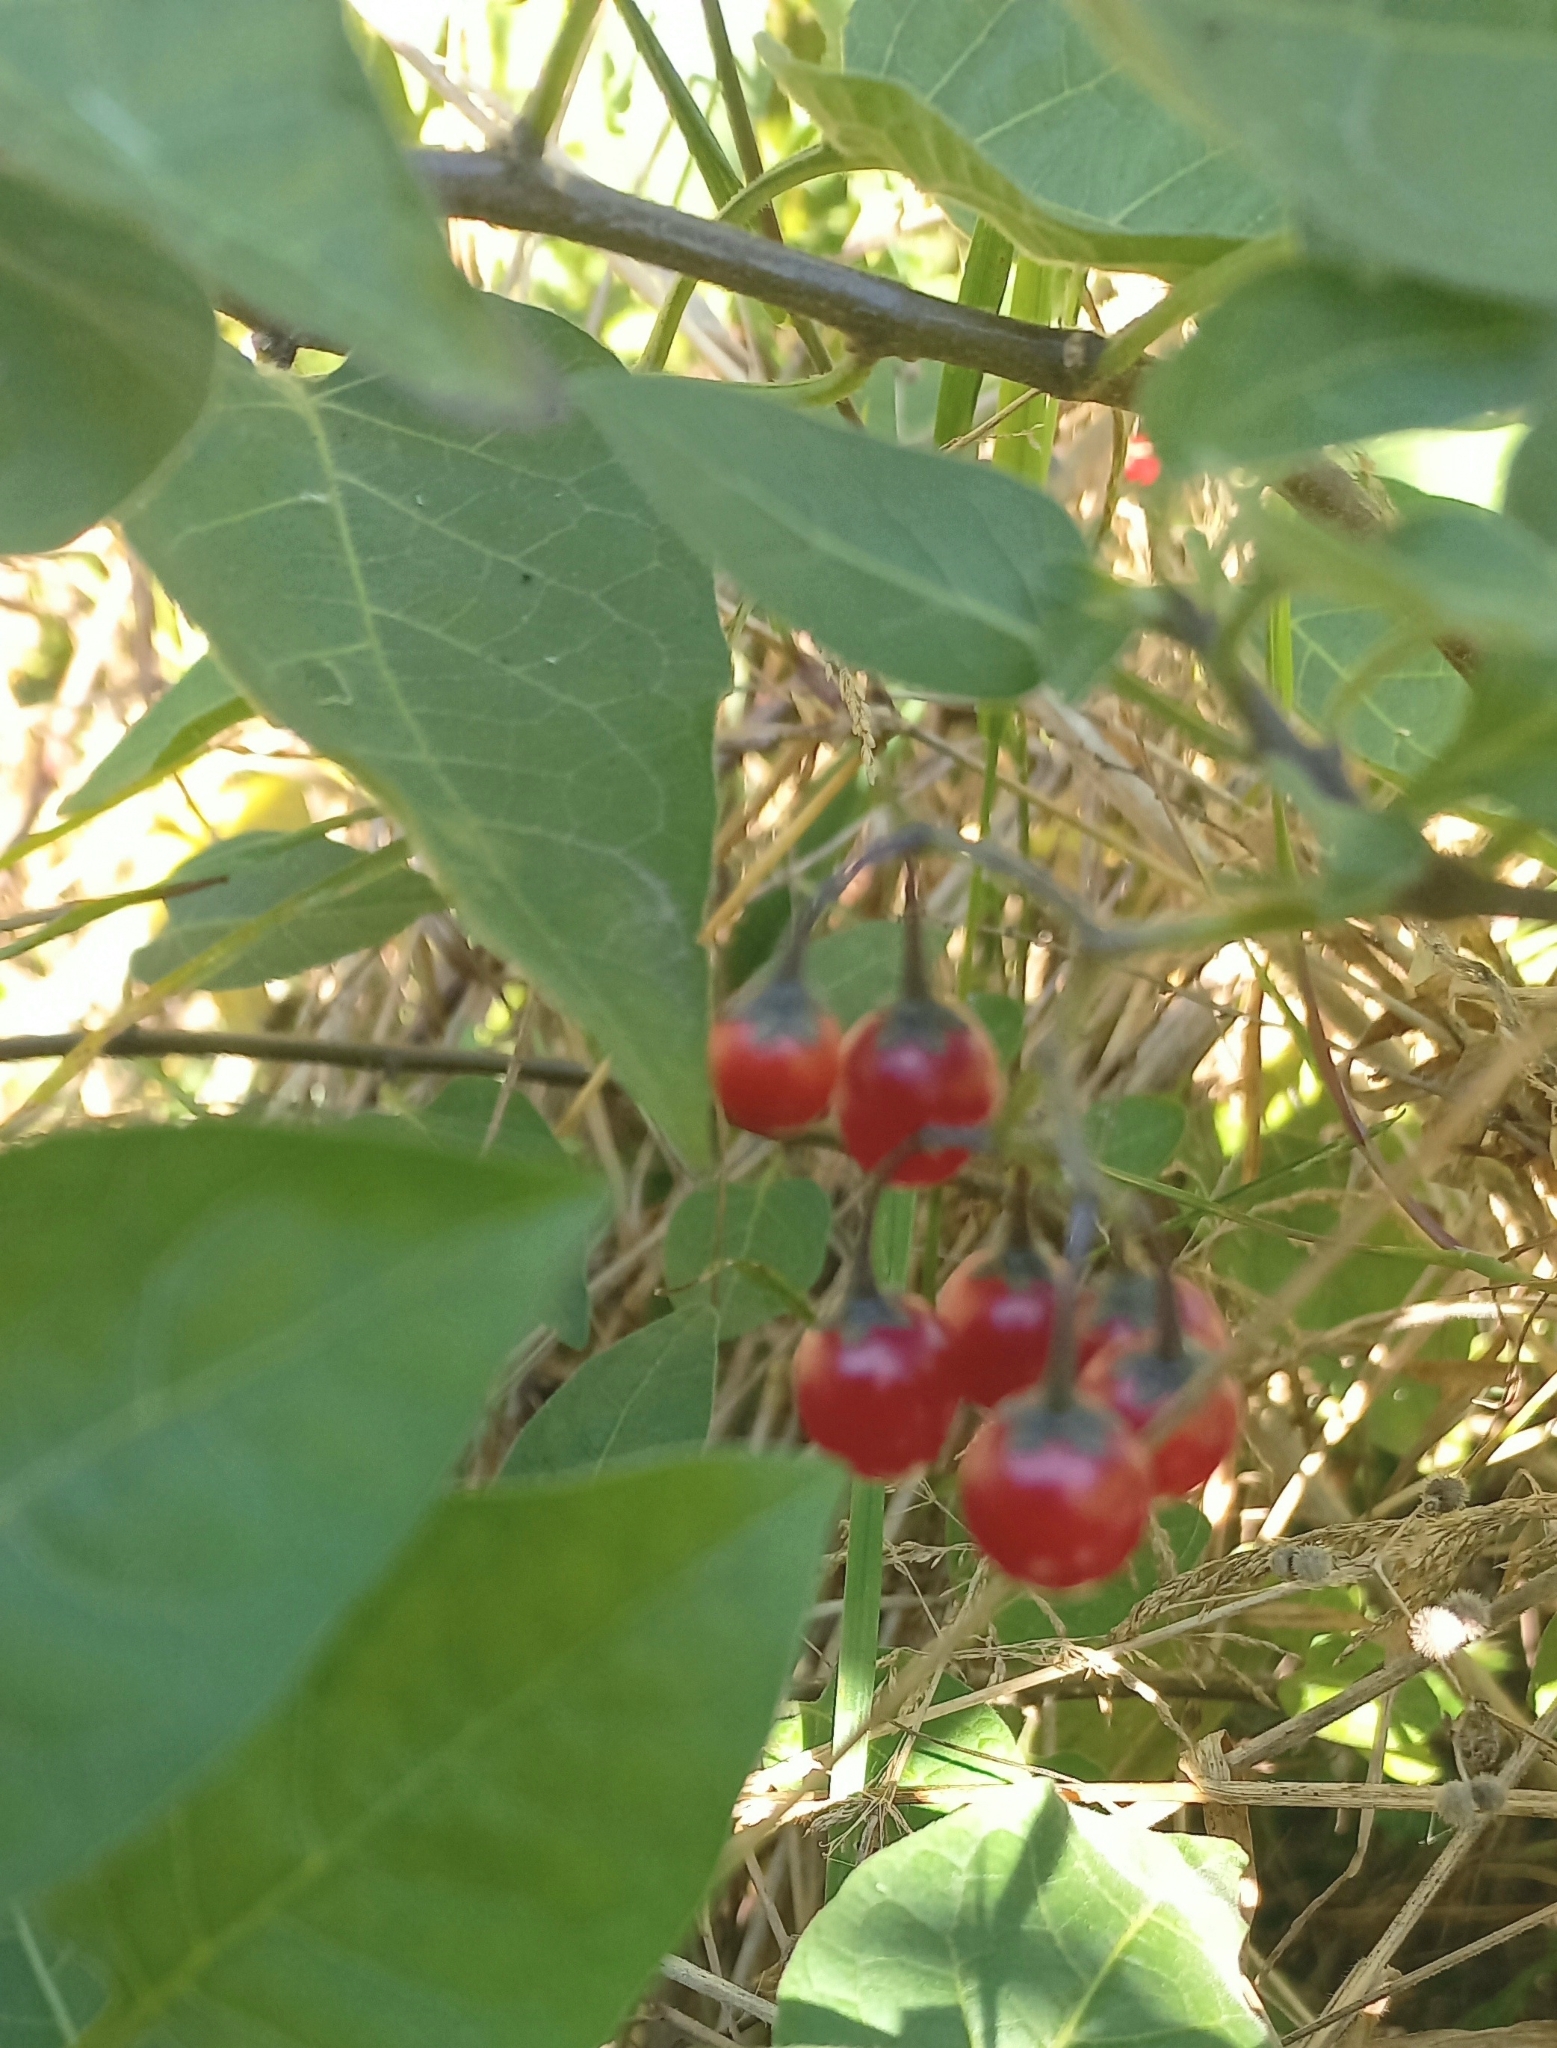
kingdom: Plantae
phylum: Tracheophyta
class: Magnoliopsida
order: Solanales
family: Solanaceae
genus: Solanum
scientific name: Solanum dulcamara
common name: Climbing nightshade
